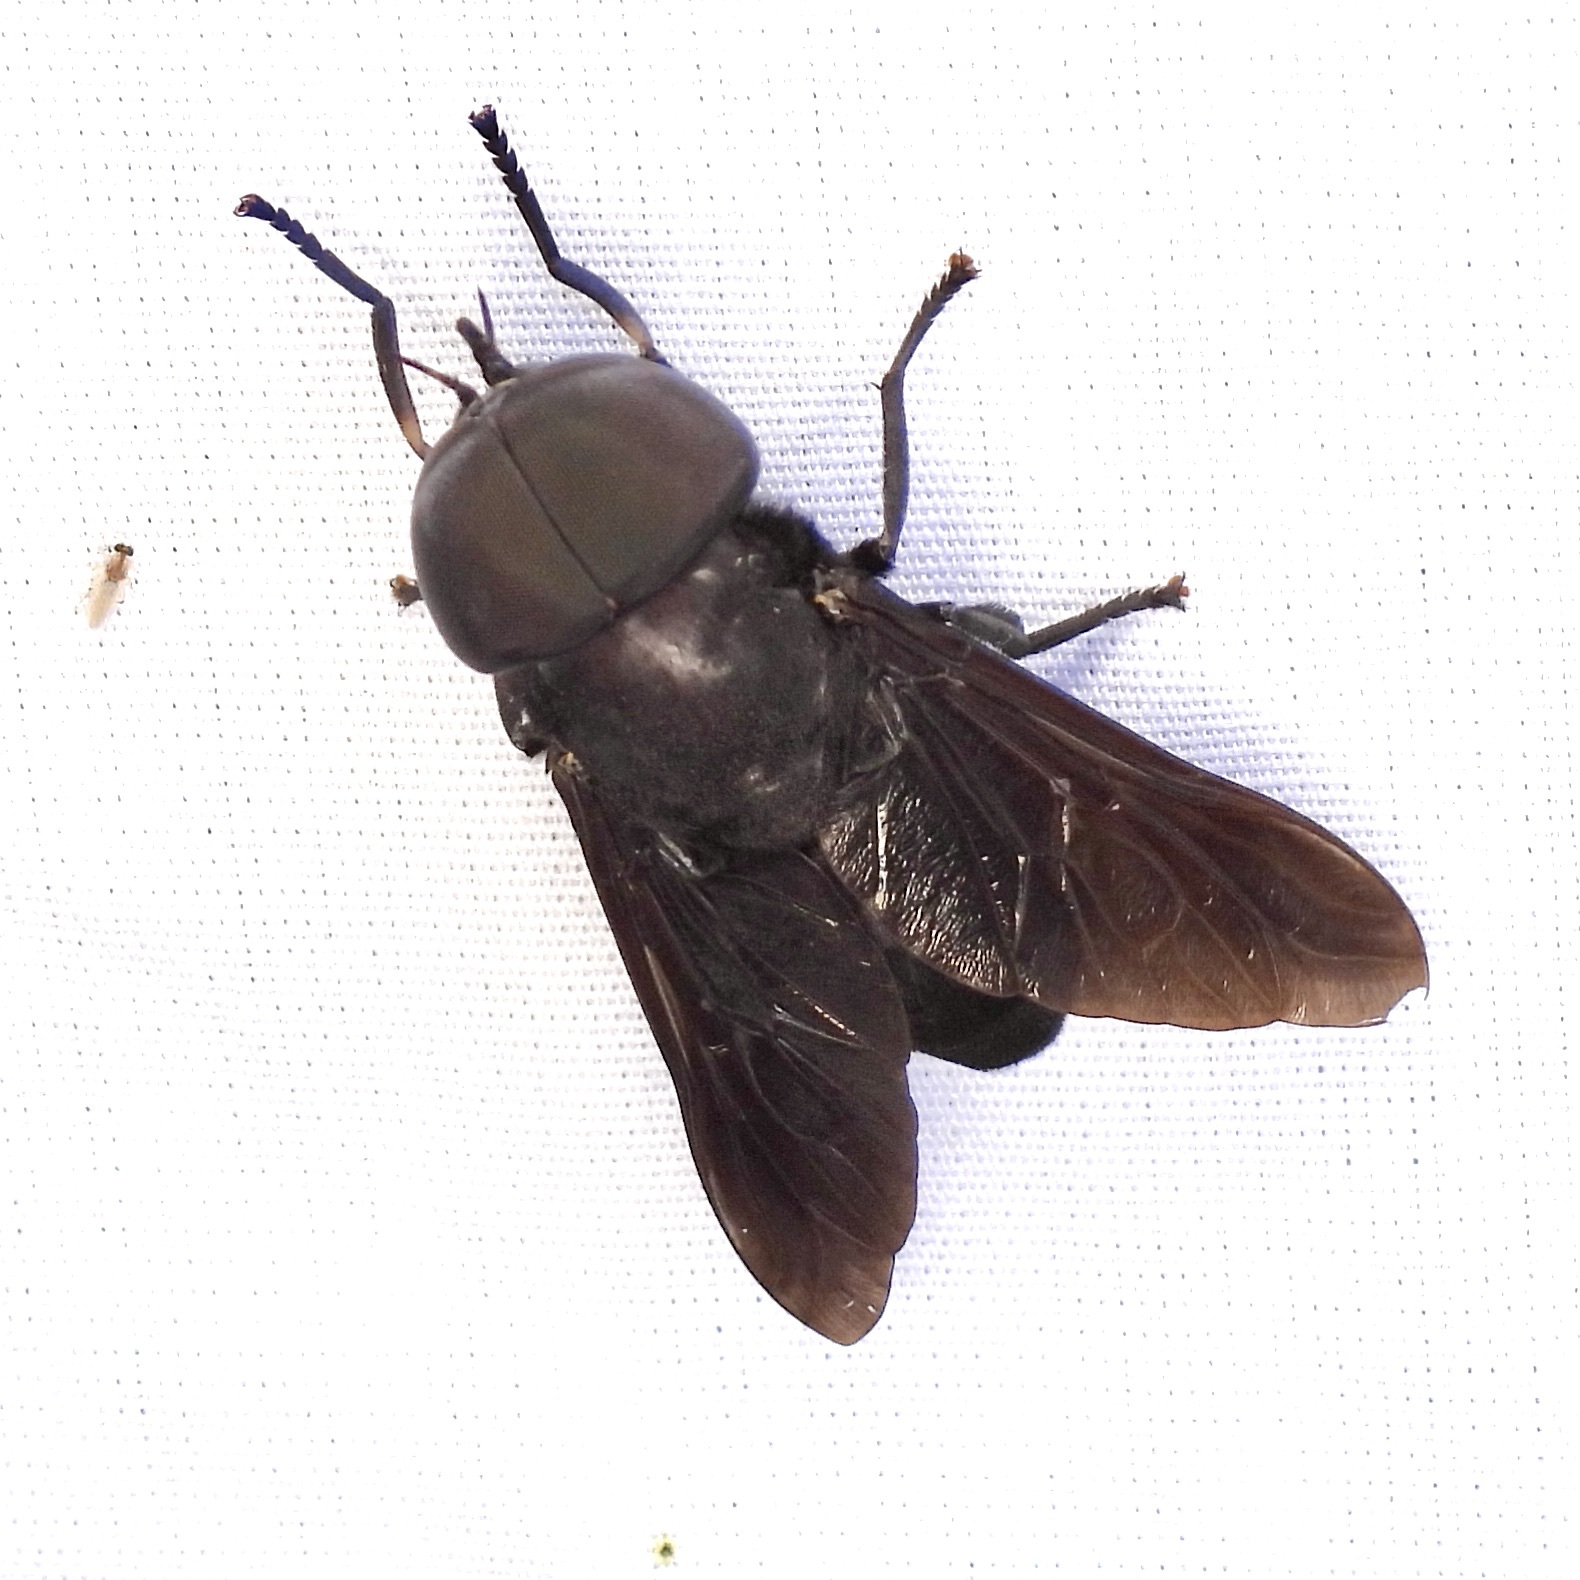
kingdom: Animalia
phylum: Arthropoda
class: Insecta
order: Diptera
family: Tabanidae
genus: Tabanus
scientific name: Tabanus atratus
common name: Black horse fly
